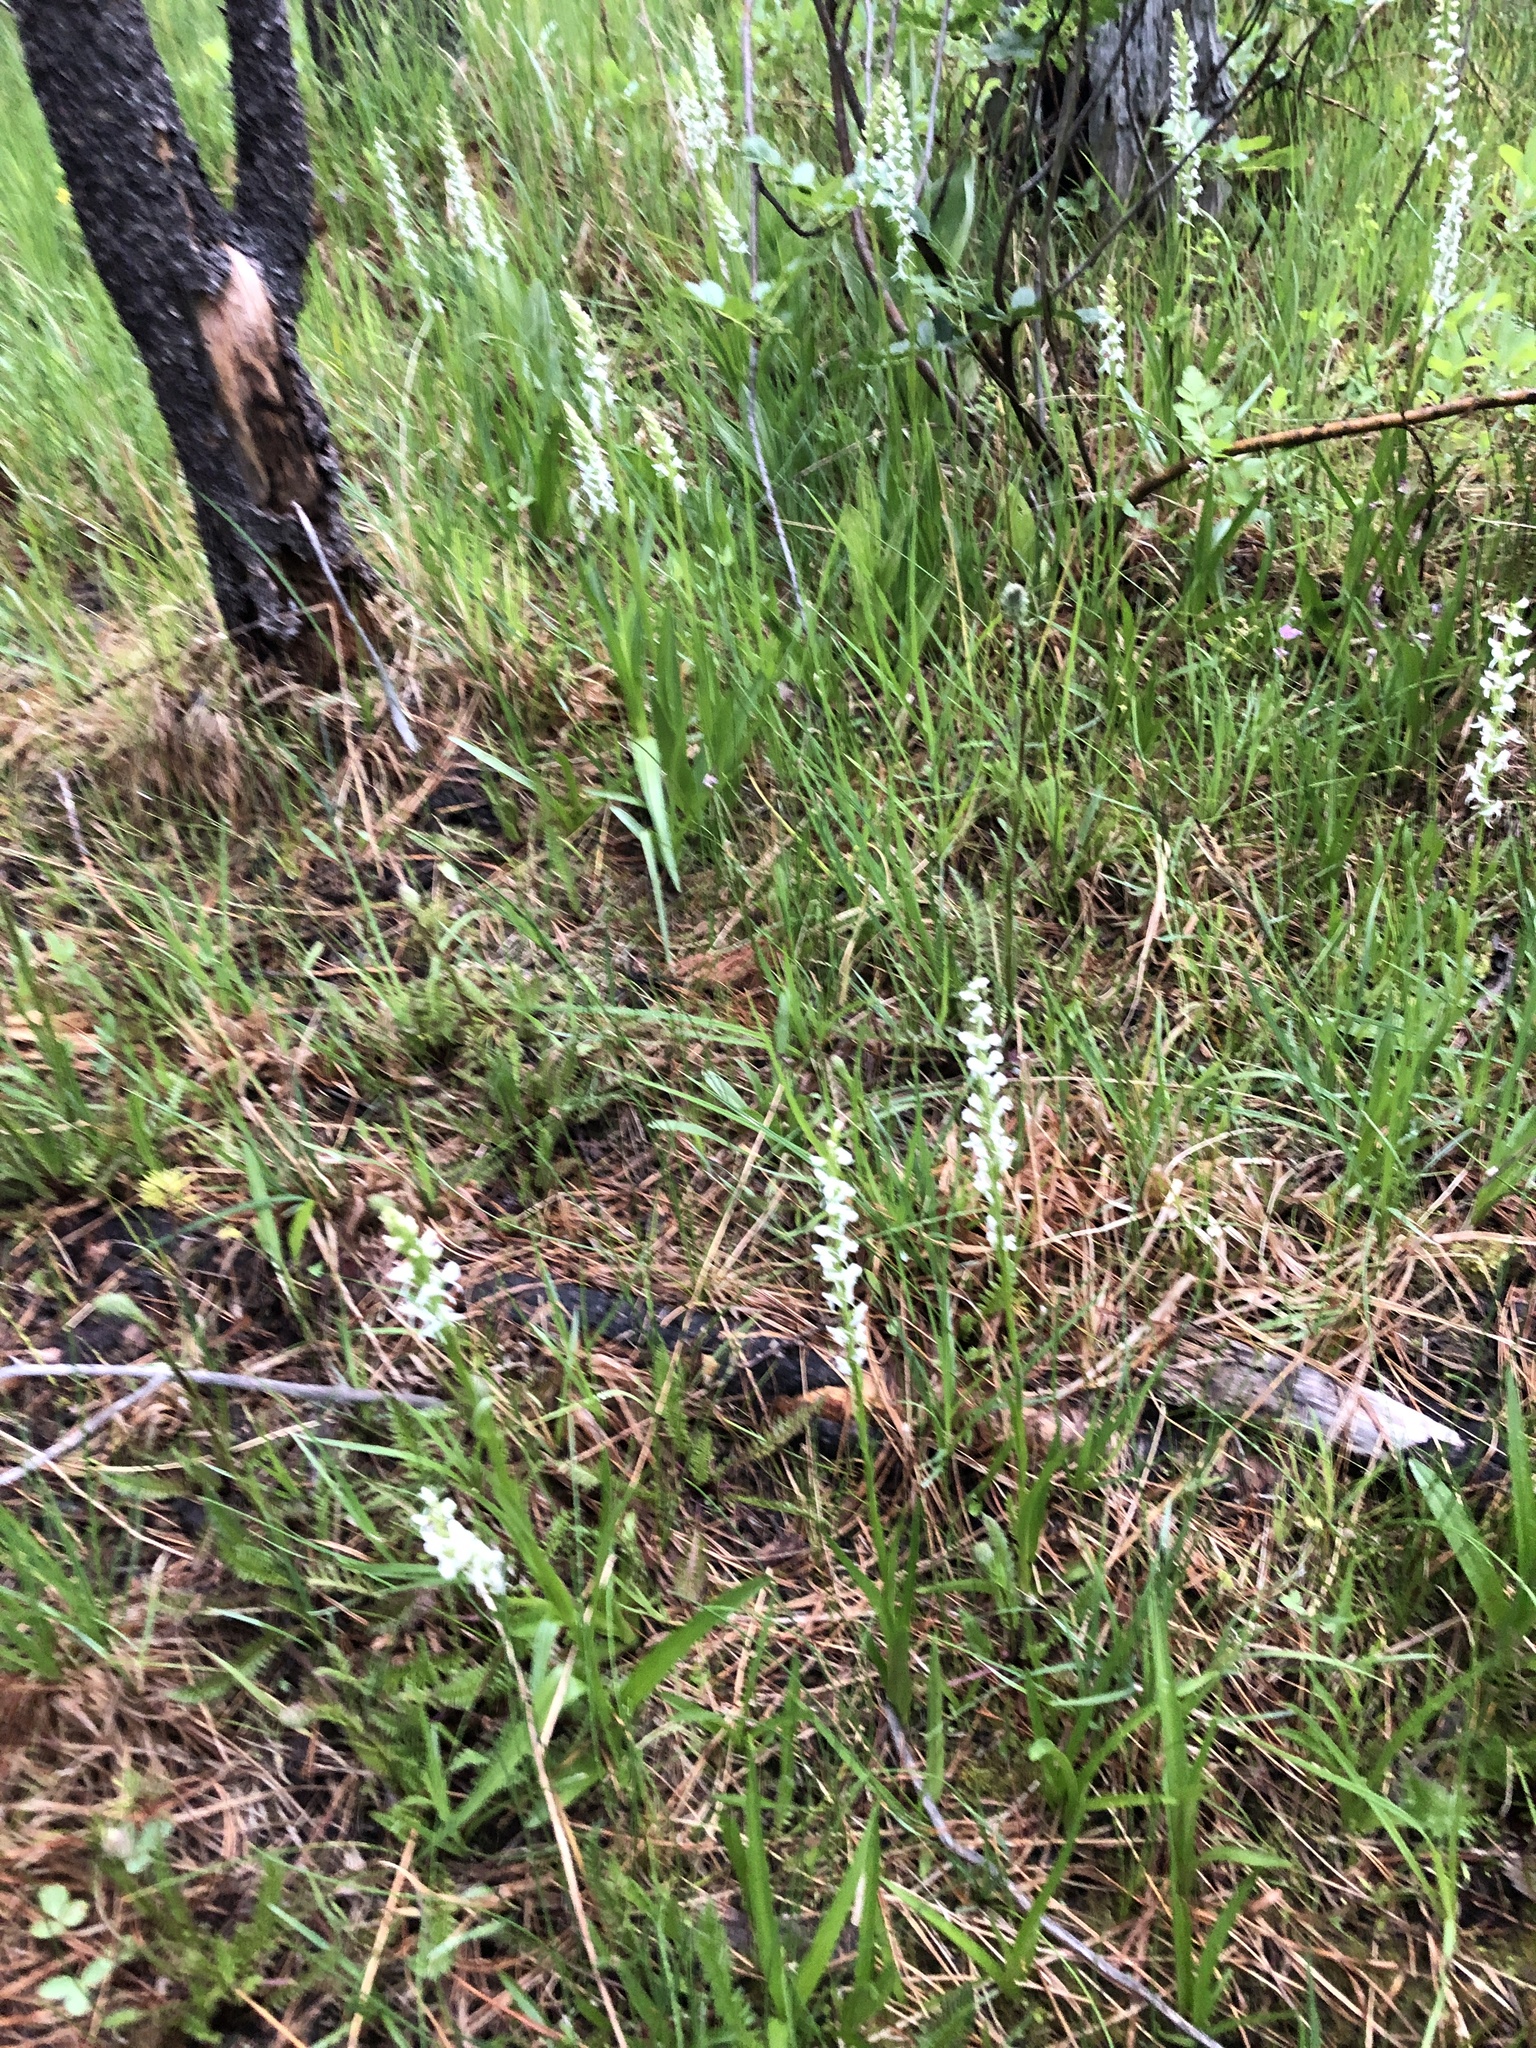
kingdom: Plantae
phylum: Tracheophyta
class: Liliopsida
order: Asparagales
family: Orchidaceae
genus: Platanthera
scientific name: Platanthera dilatata
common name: Bog candles
